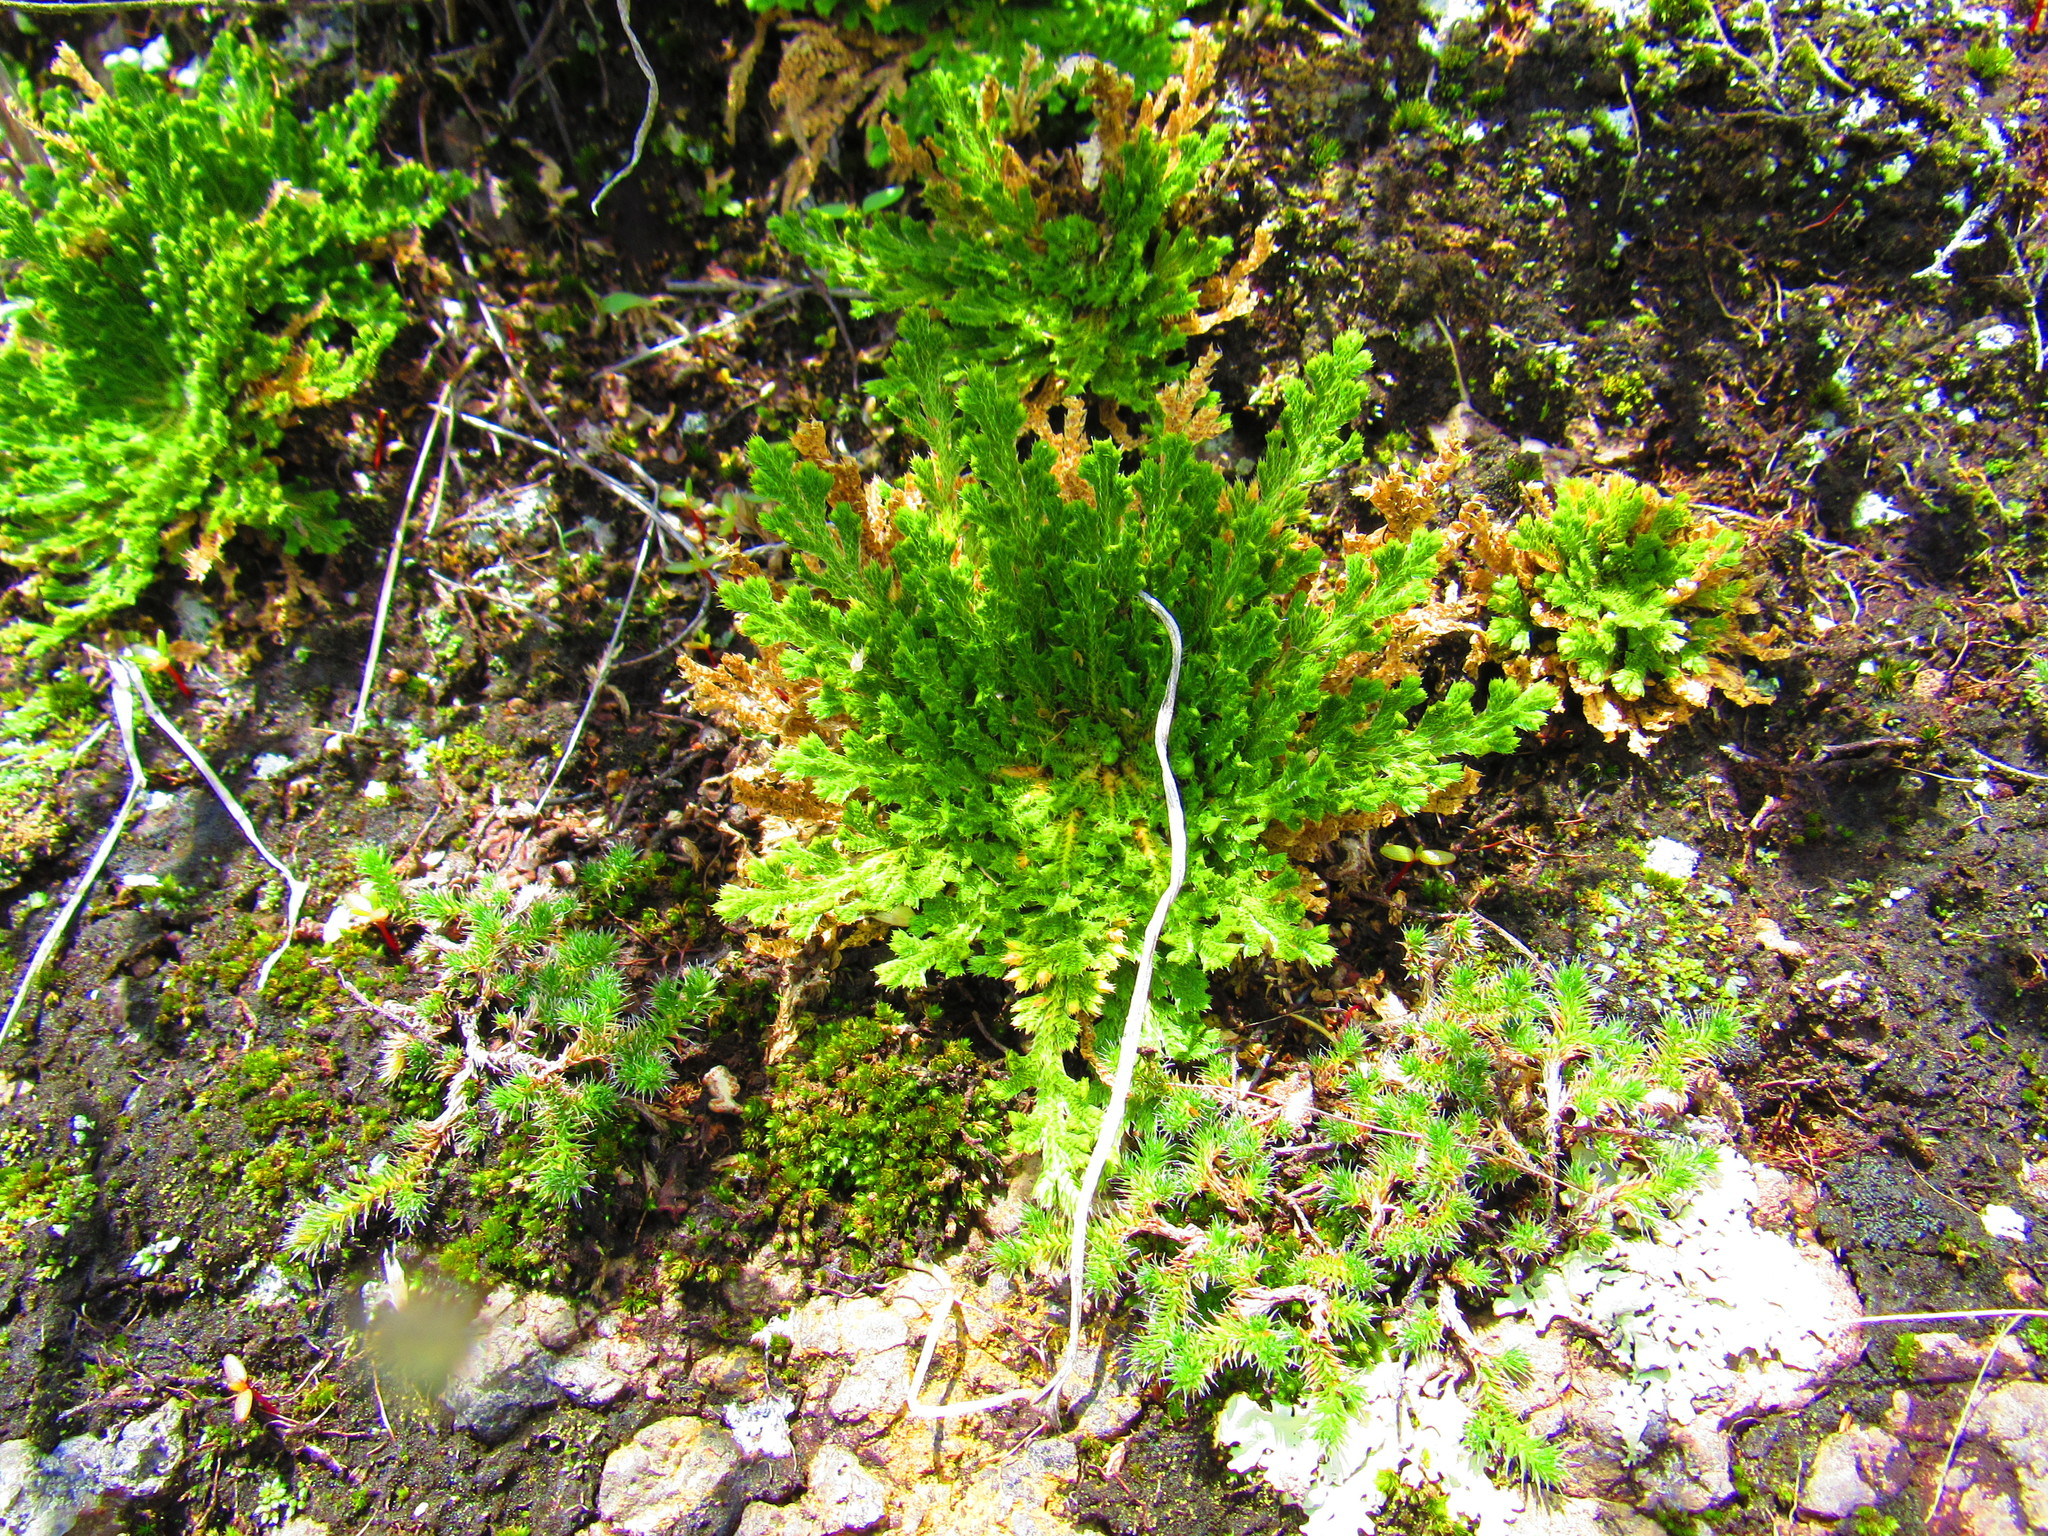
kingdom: Plantae
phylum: Tracheophyta
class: Lycopodiopsida
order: Selaginellales
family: Selaginellaceae
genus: Selaginella
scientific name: Selaginella lepidophylla
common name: Rose-of-jericho
